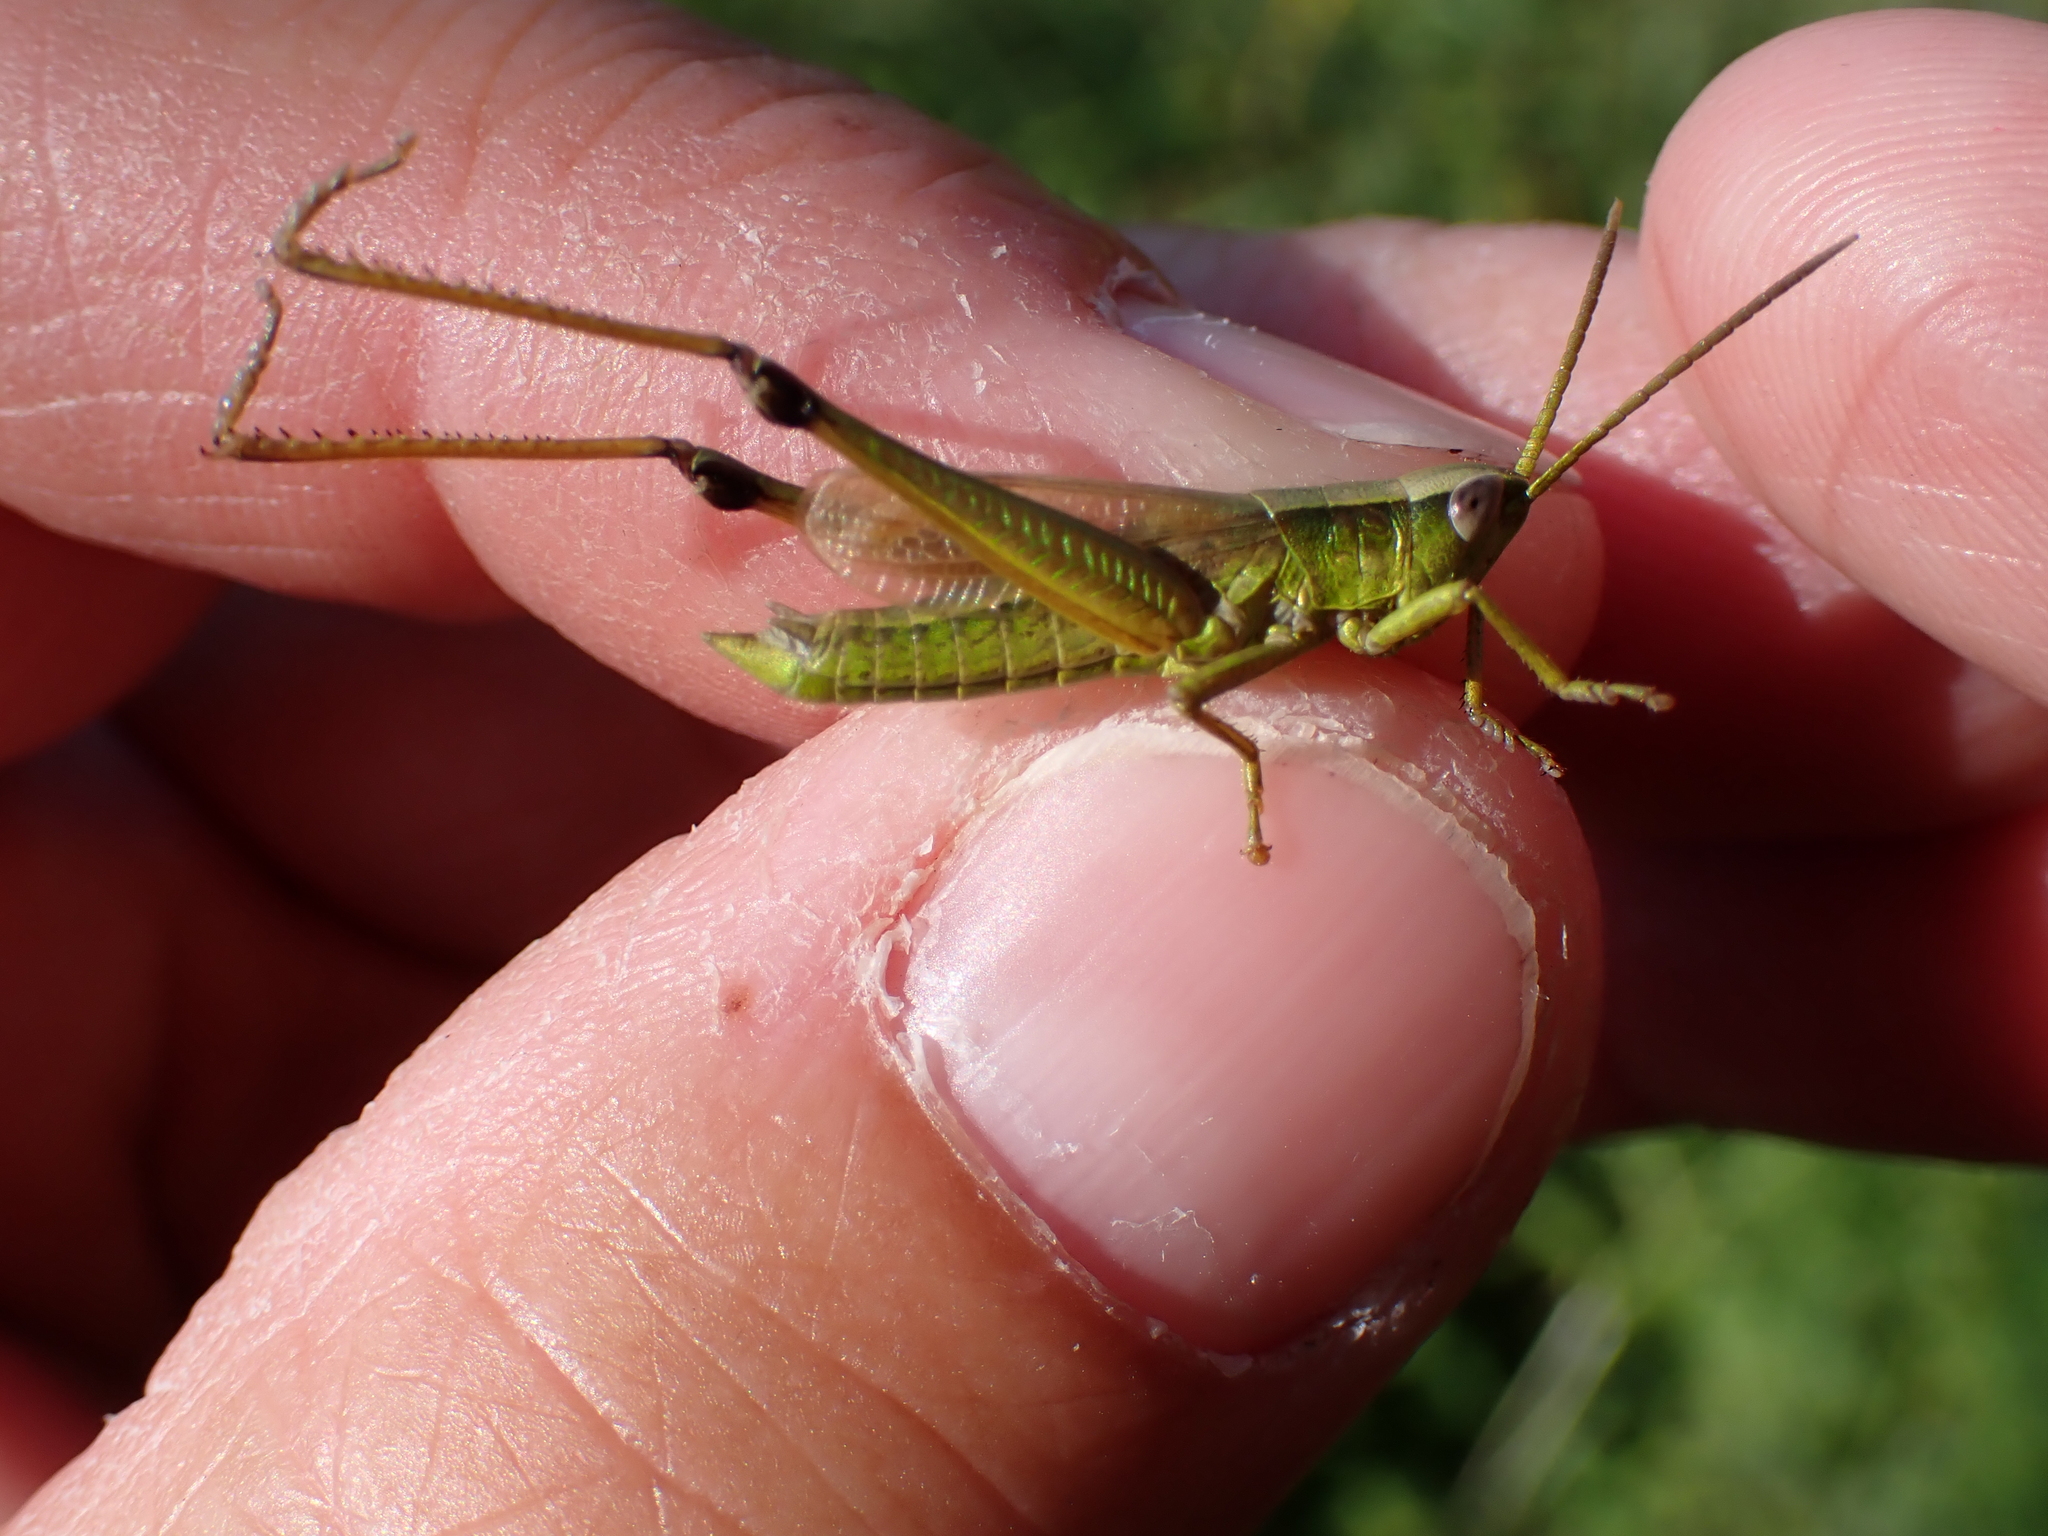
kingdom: Animalia
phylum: Arthropoda
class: Insecta
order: Orthoptera
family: Acrididae
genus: Chrysochraon
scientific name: Chrysochraon dispar
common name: Large gold grasshopper
